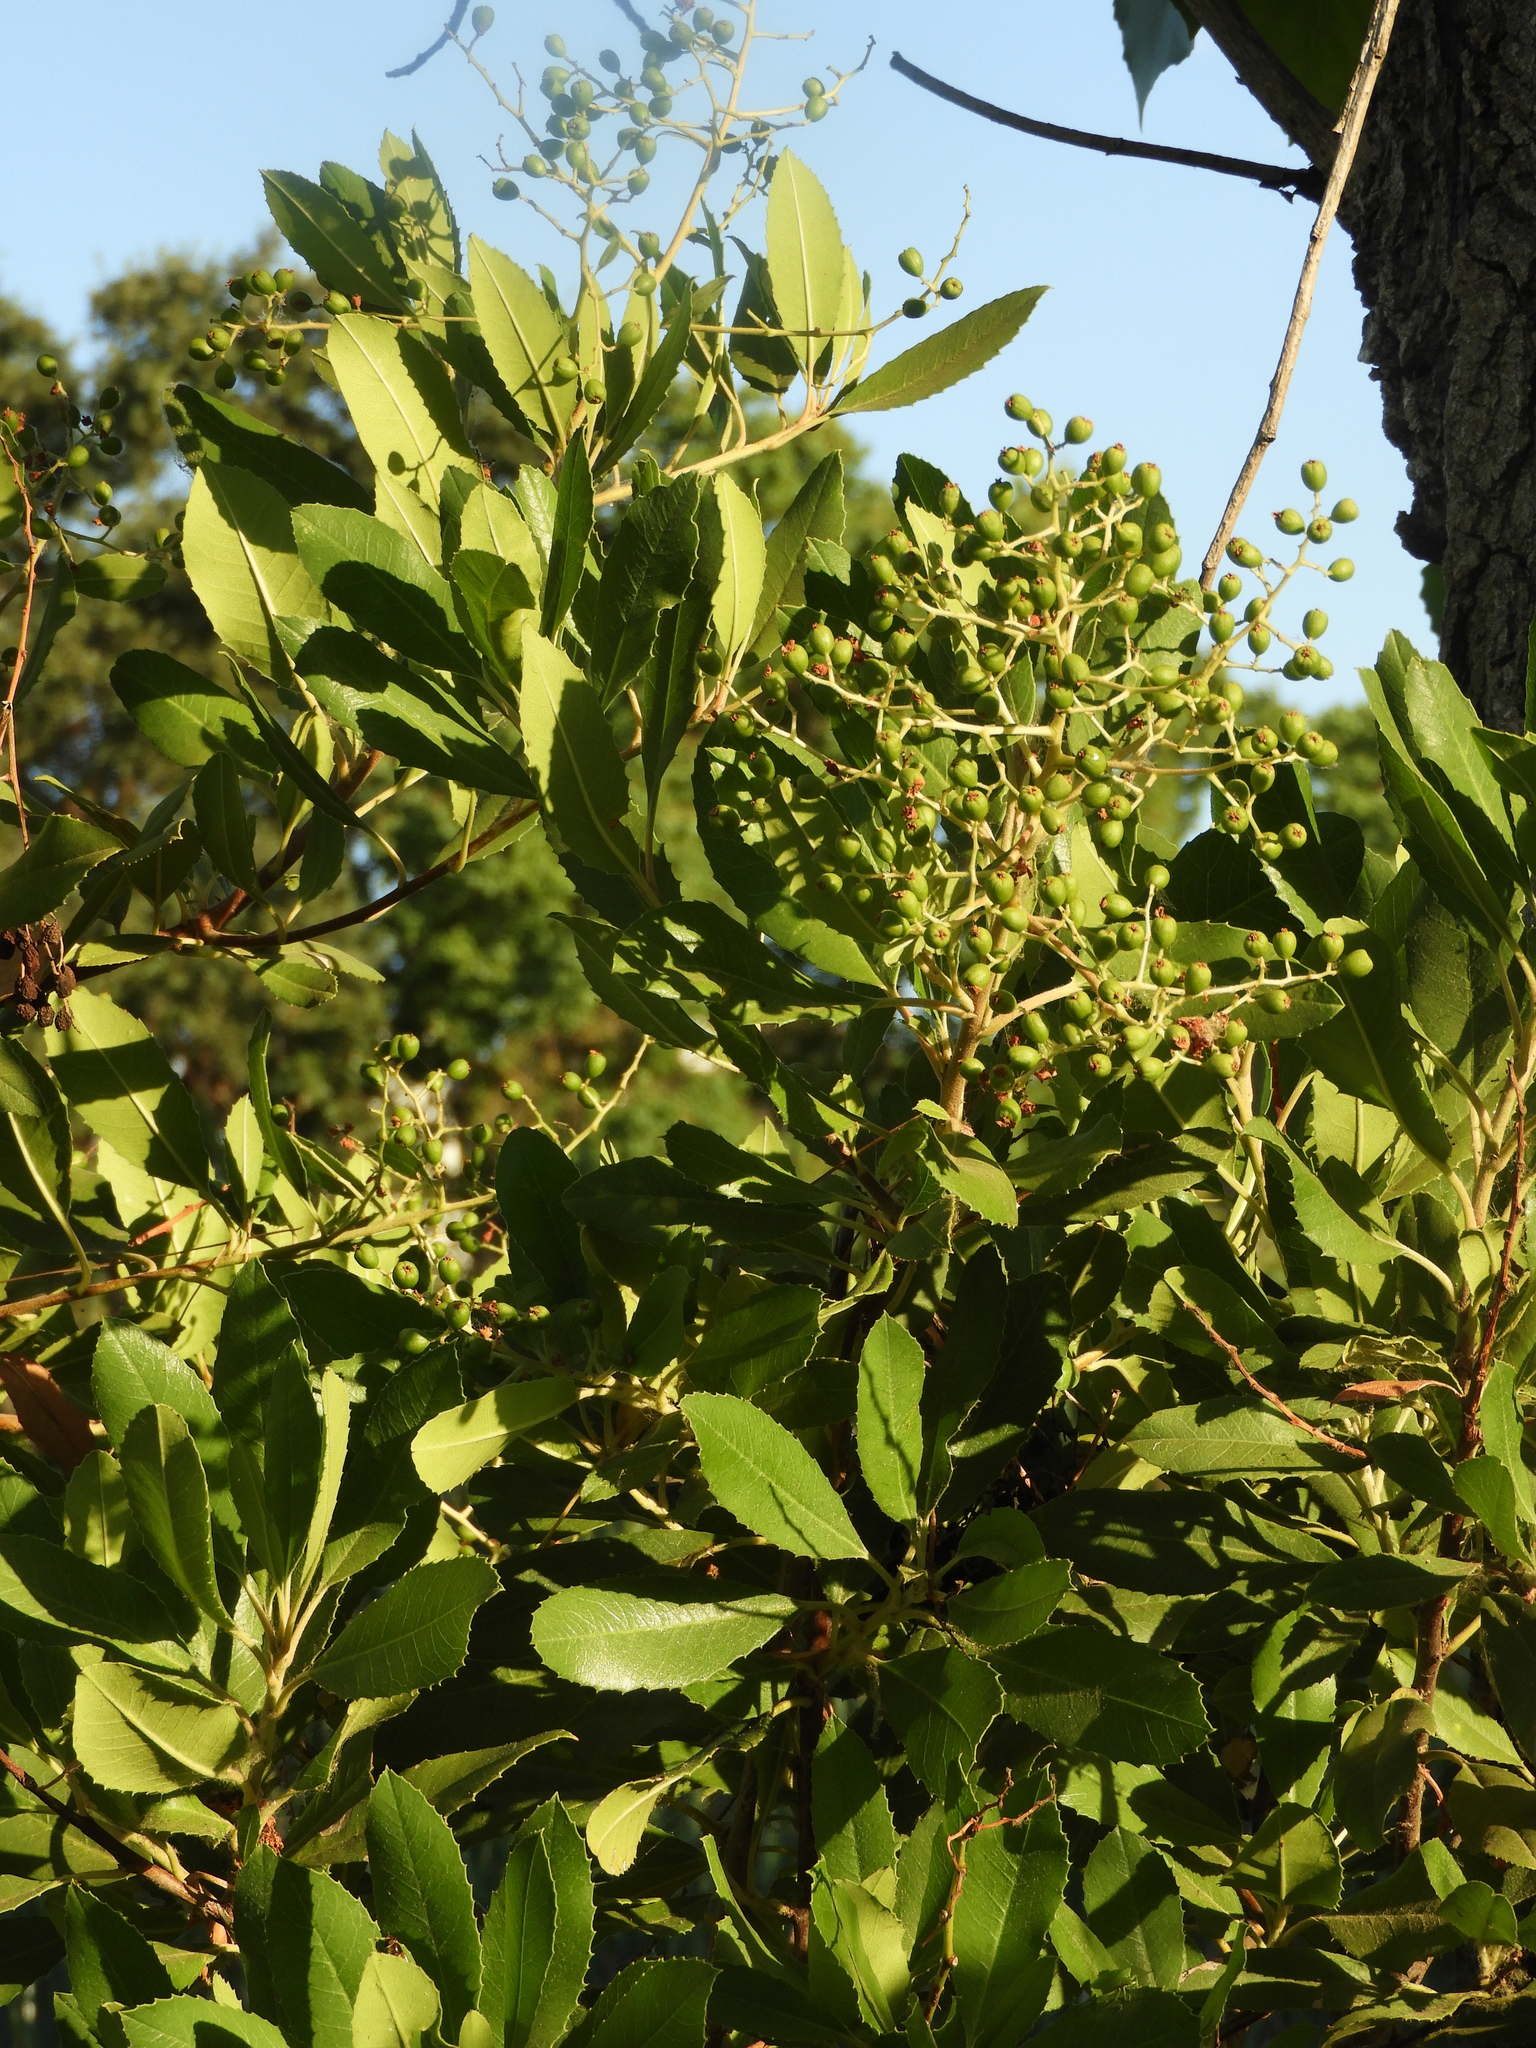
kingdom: Plantae
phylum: Tracheophyta
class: Magnoliopsida
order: Rosales
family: Rosaceae
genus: Heteromeles
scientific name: Heteromeles arbutifolia
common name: California-holly
